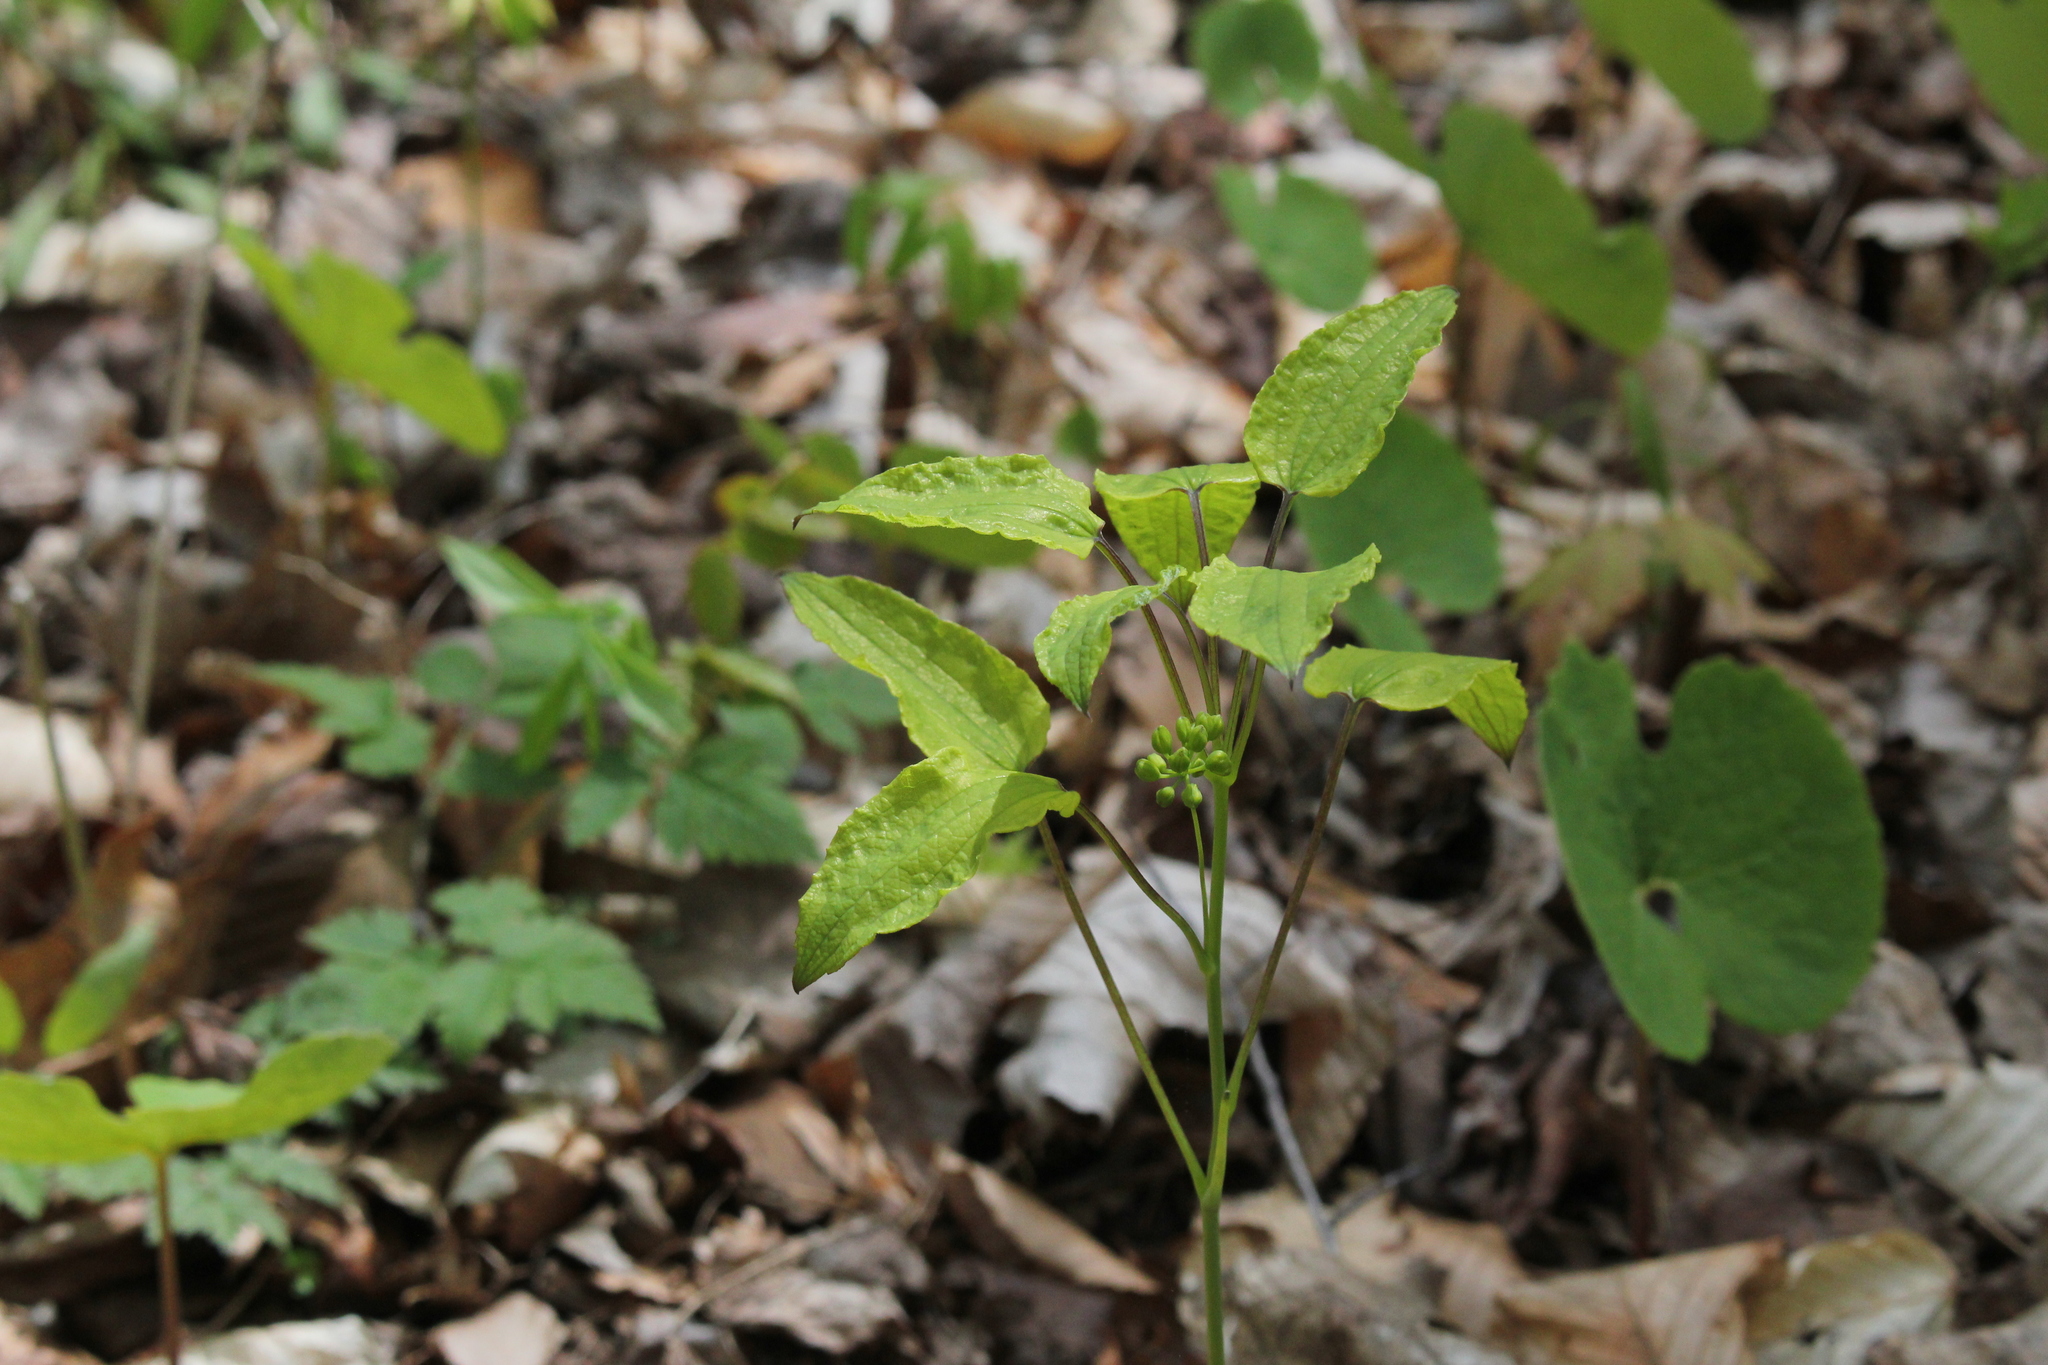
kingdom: Plantae
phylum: Tracheophyta
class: Liliopsida
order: Liliales
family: Smilacaceae
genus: Smilax
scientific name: Smilax ecirrhata
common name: Upright carrionflower
